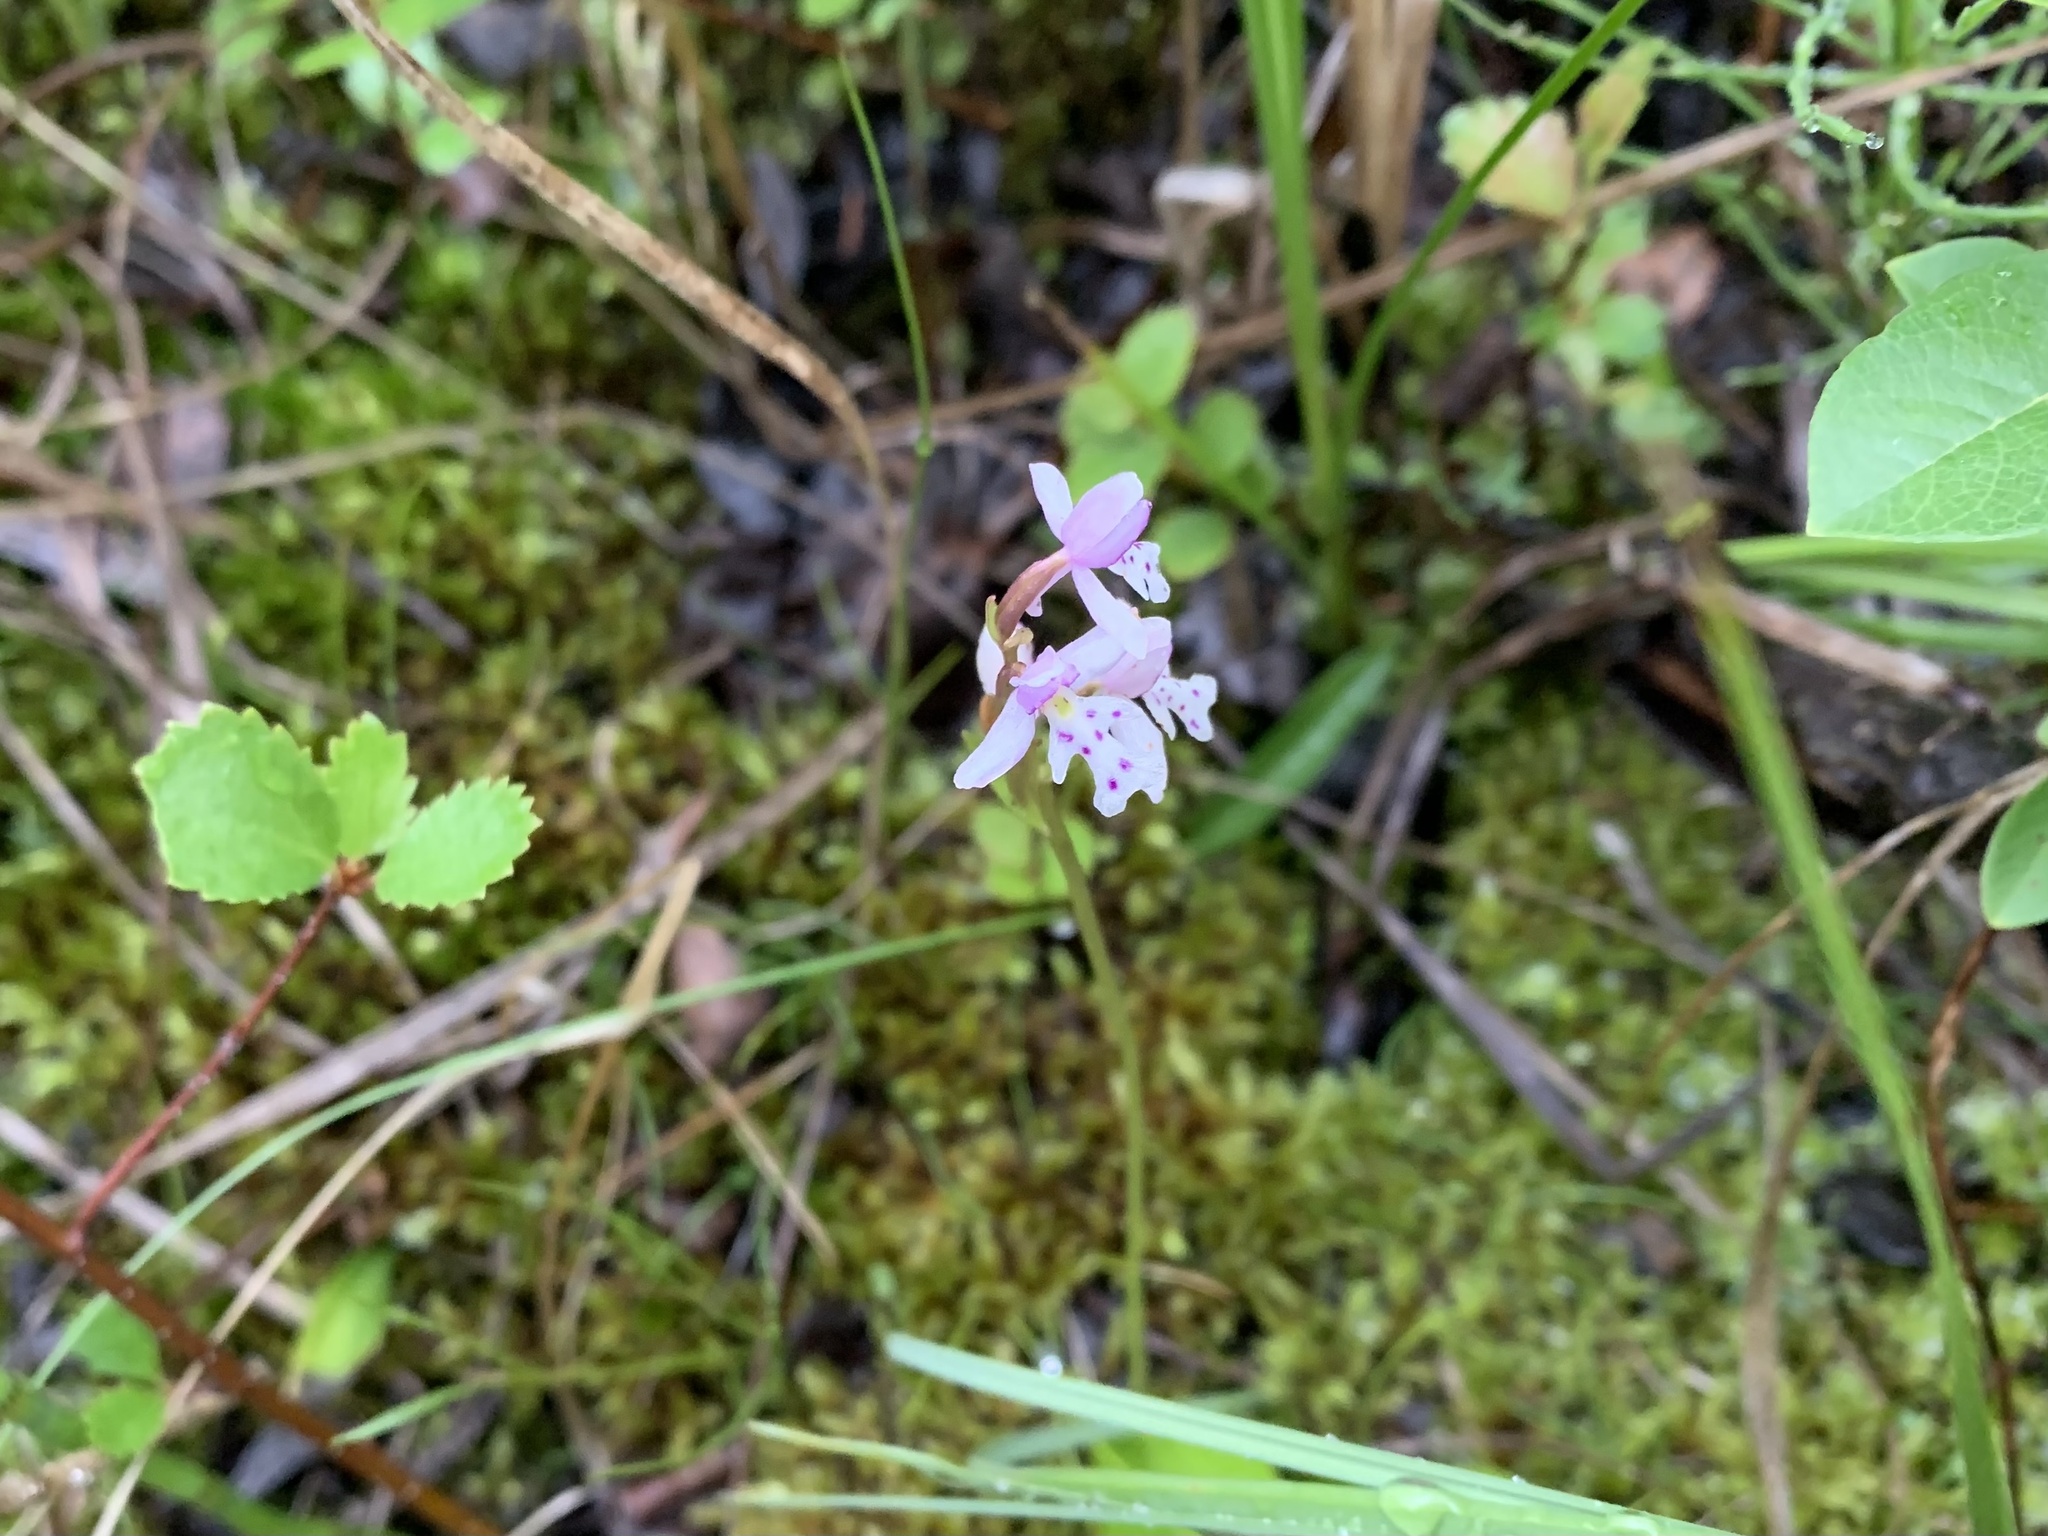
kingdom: Plantae
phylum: Tracheophyta
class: Liliopsida
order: Asparagales
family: Orchidaceae
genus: Galearis
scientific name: Galearis rotundifolia
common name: One-leaved orchis
